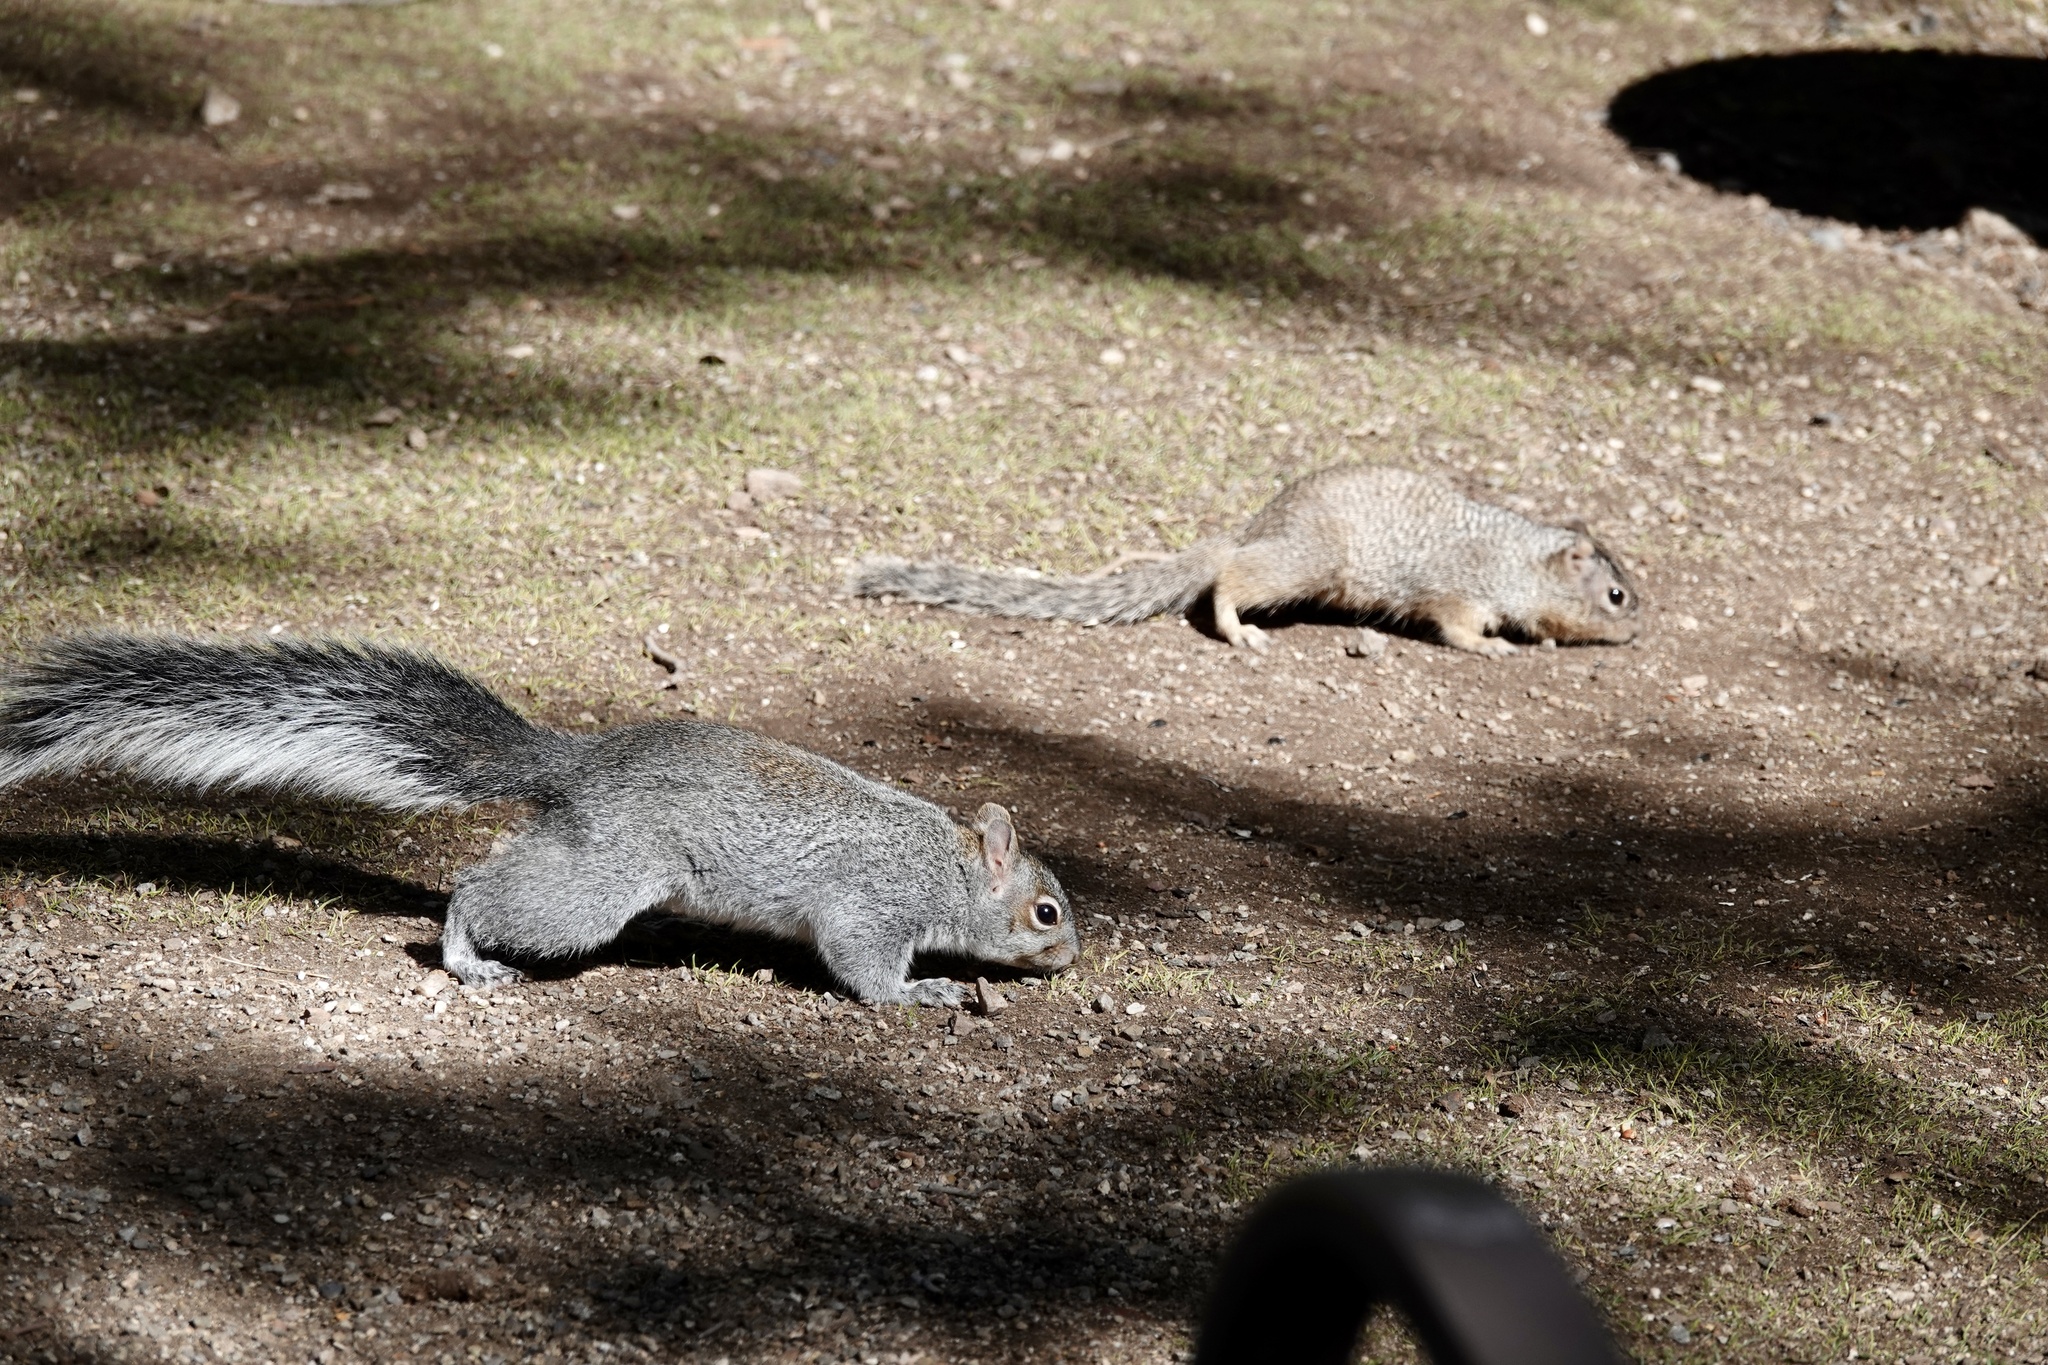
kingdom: Animalia
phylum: Chordata
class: Mammalia
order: Rodentia
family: Sciuridae
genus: Sciurus
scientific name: Sciurus arizonensis
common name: Arizona gray squirrel
